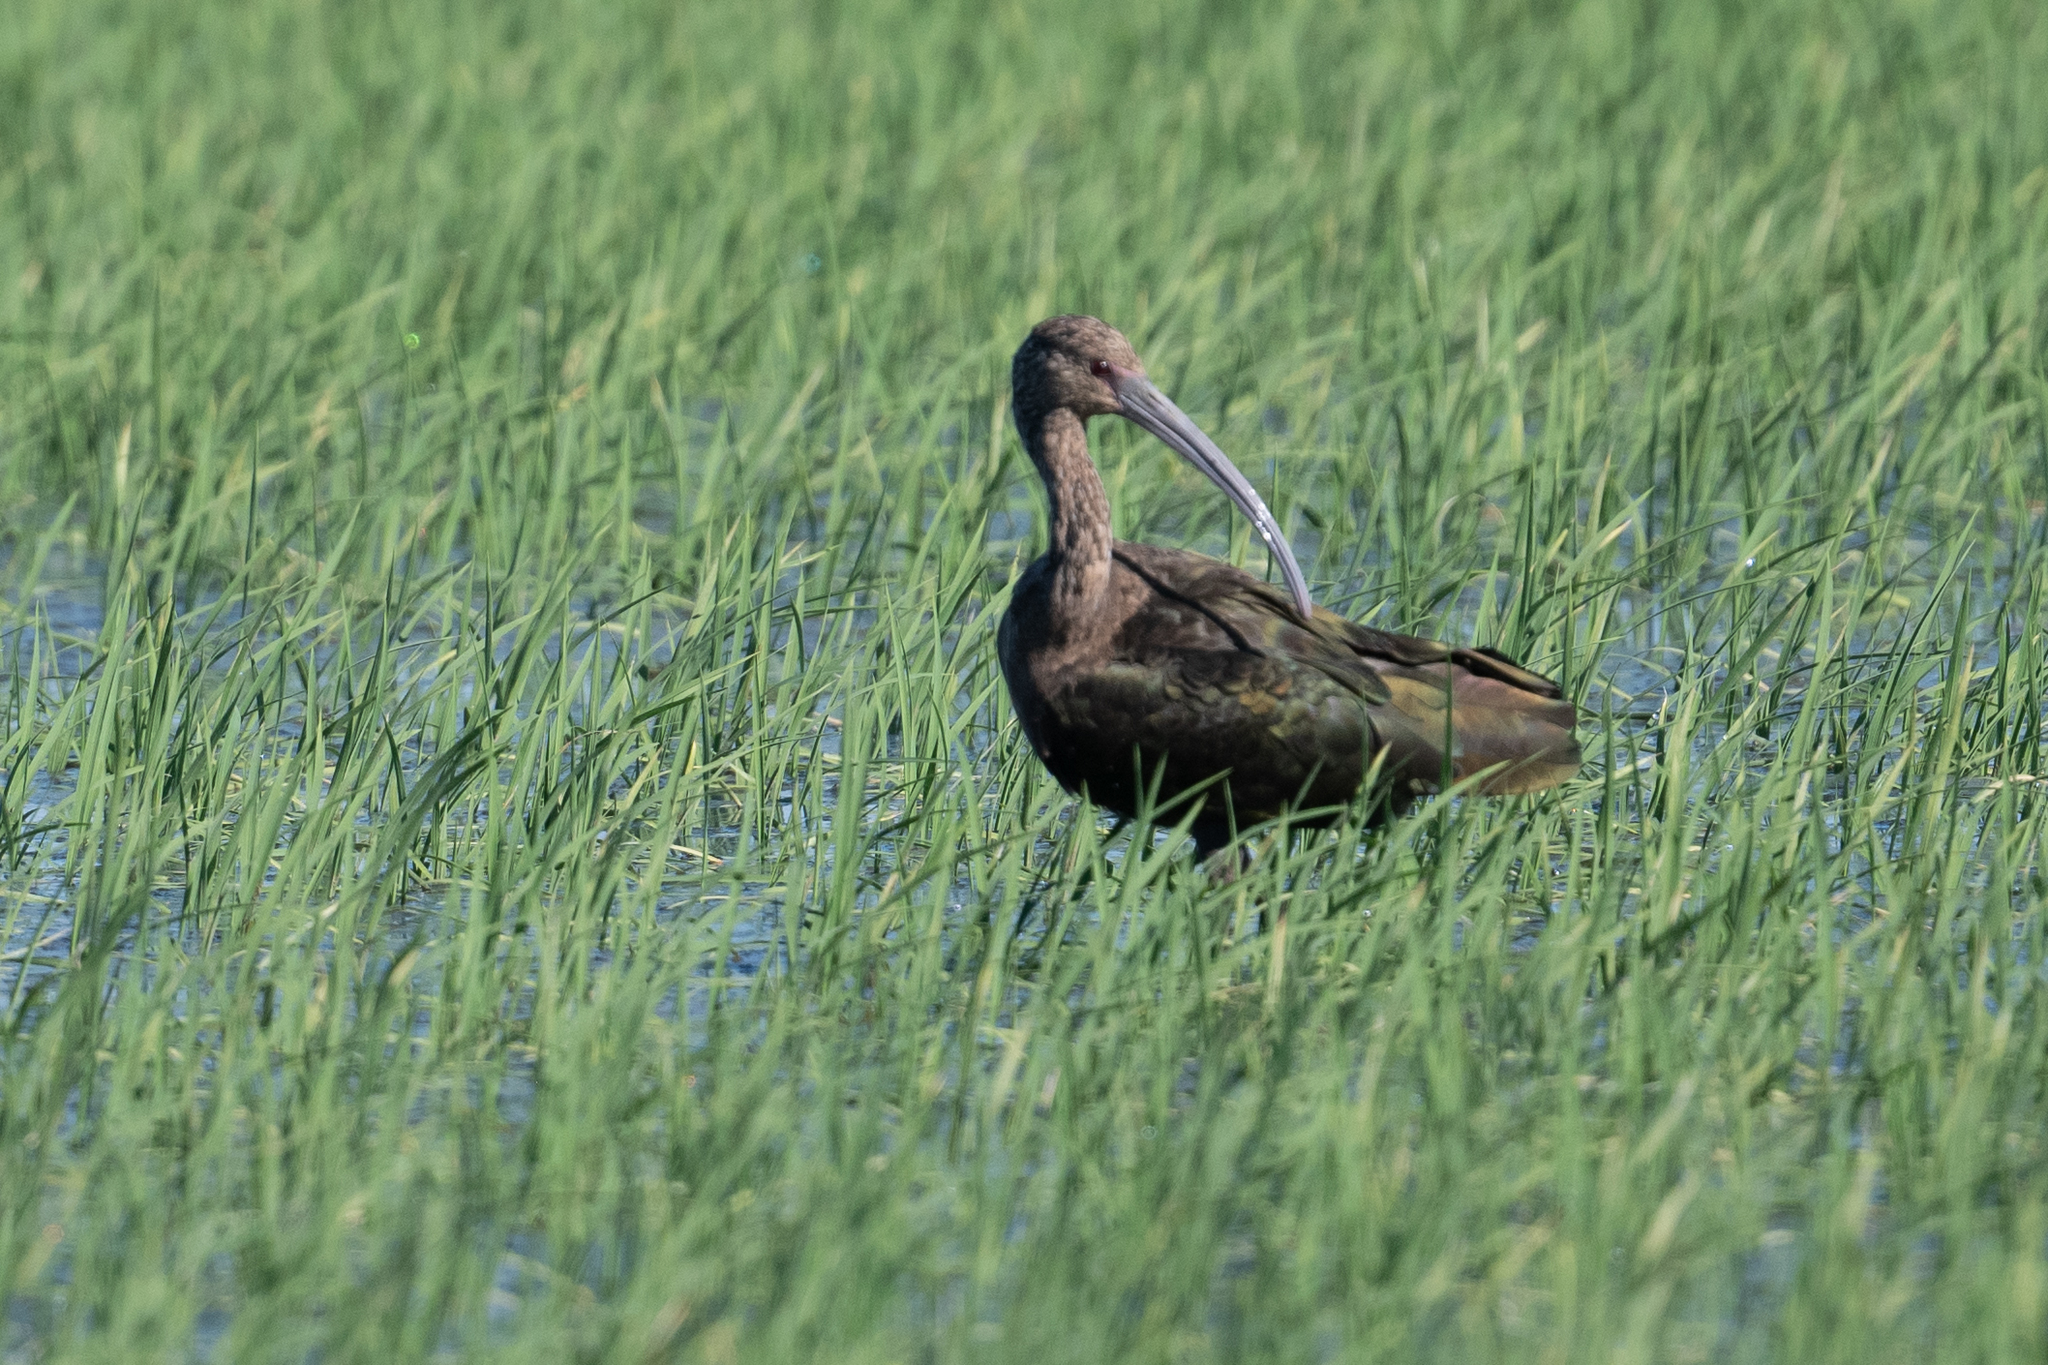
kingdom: Animalia
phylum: Chordata
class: Aves
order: Pelecaniformes
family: Threskiornithidae
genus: Plegadis
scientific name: Plegadis chihi
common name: White-faced ibis
